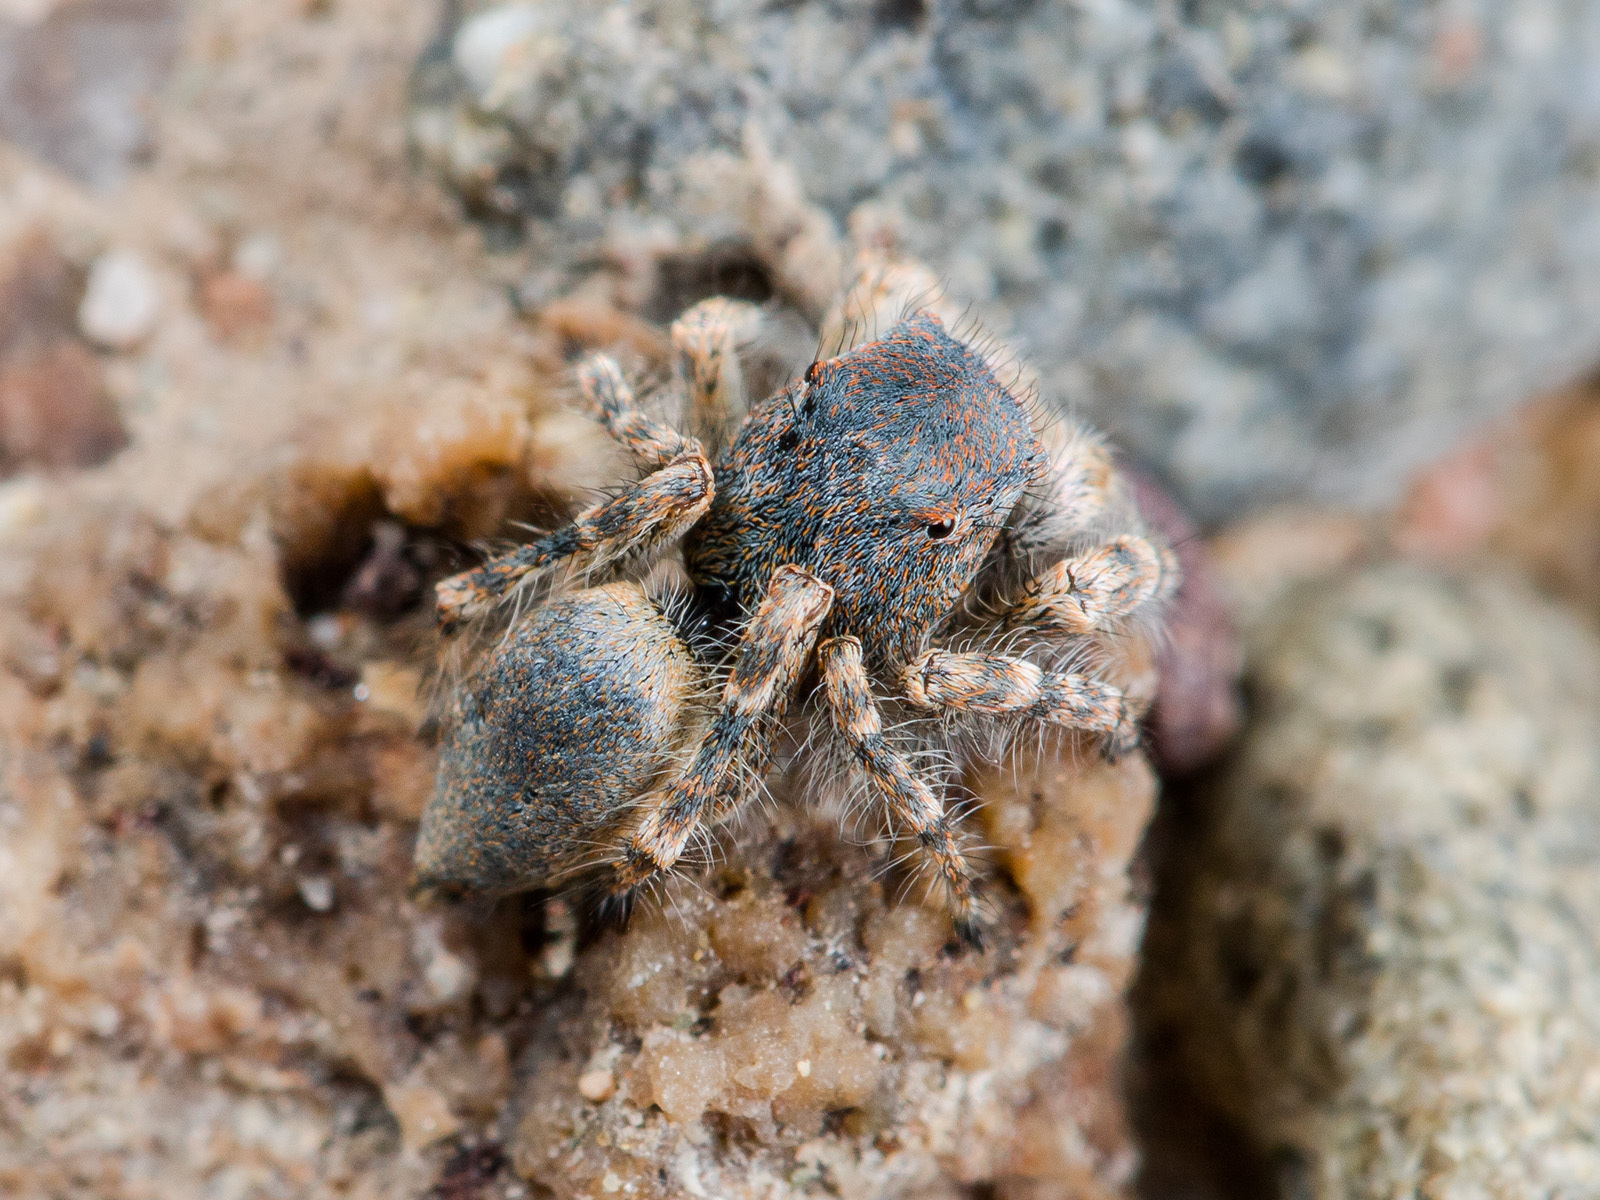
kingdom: Animalia
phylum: Arthropoda
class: Arachnida
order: Araneae
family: Salticidae
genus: Yllenus
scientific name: Yllenus zyuzini
